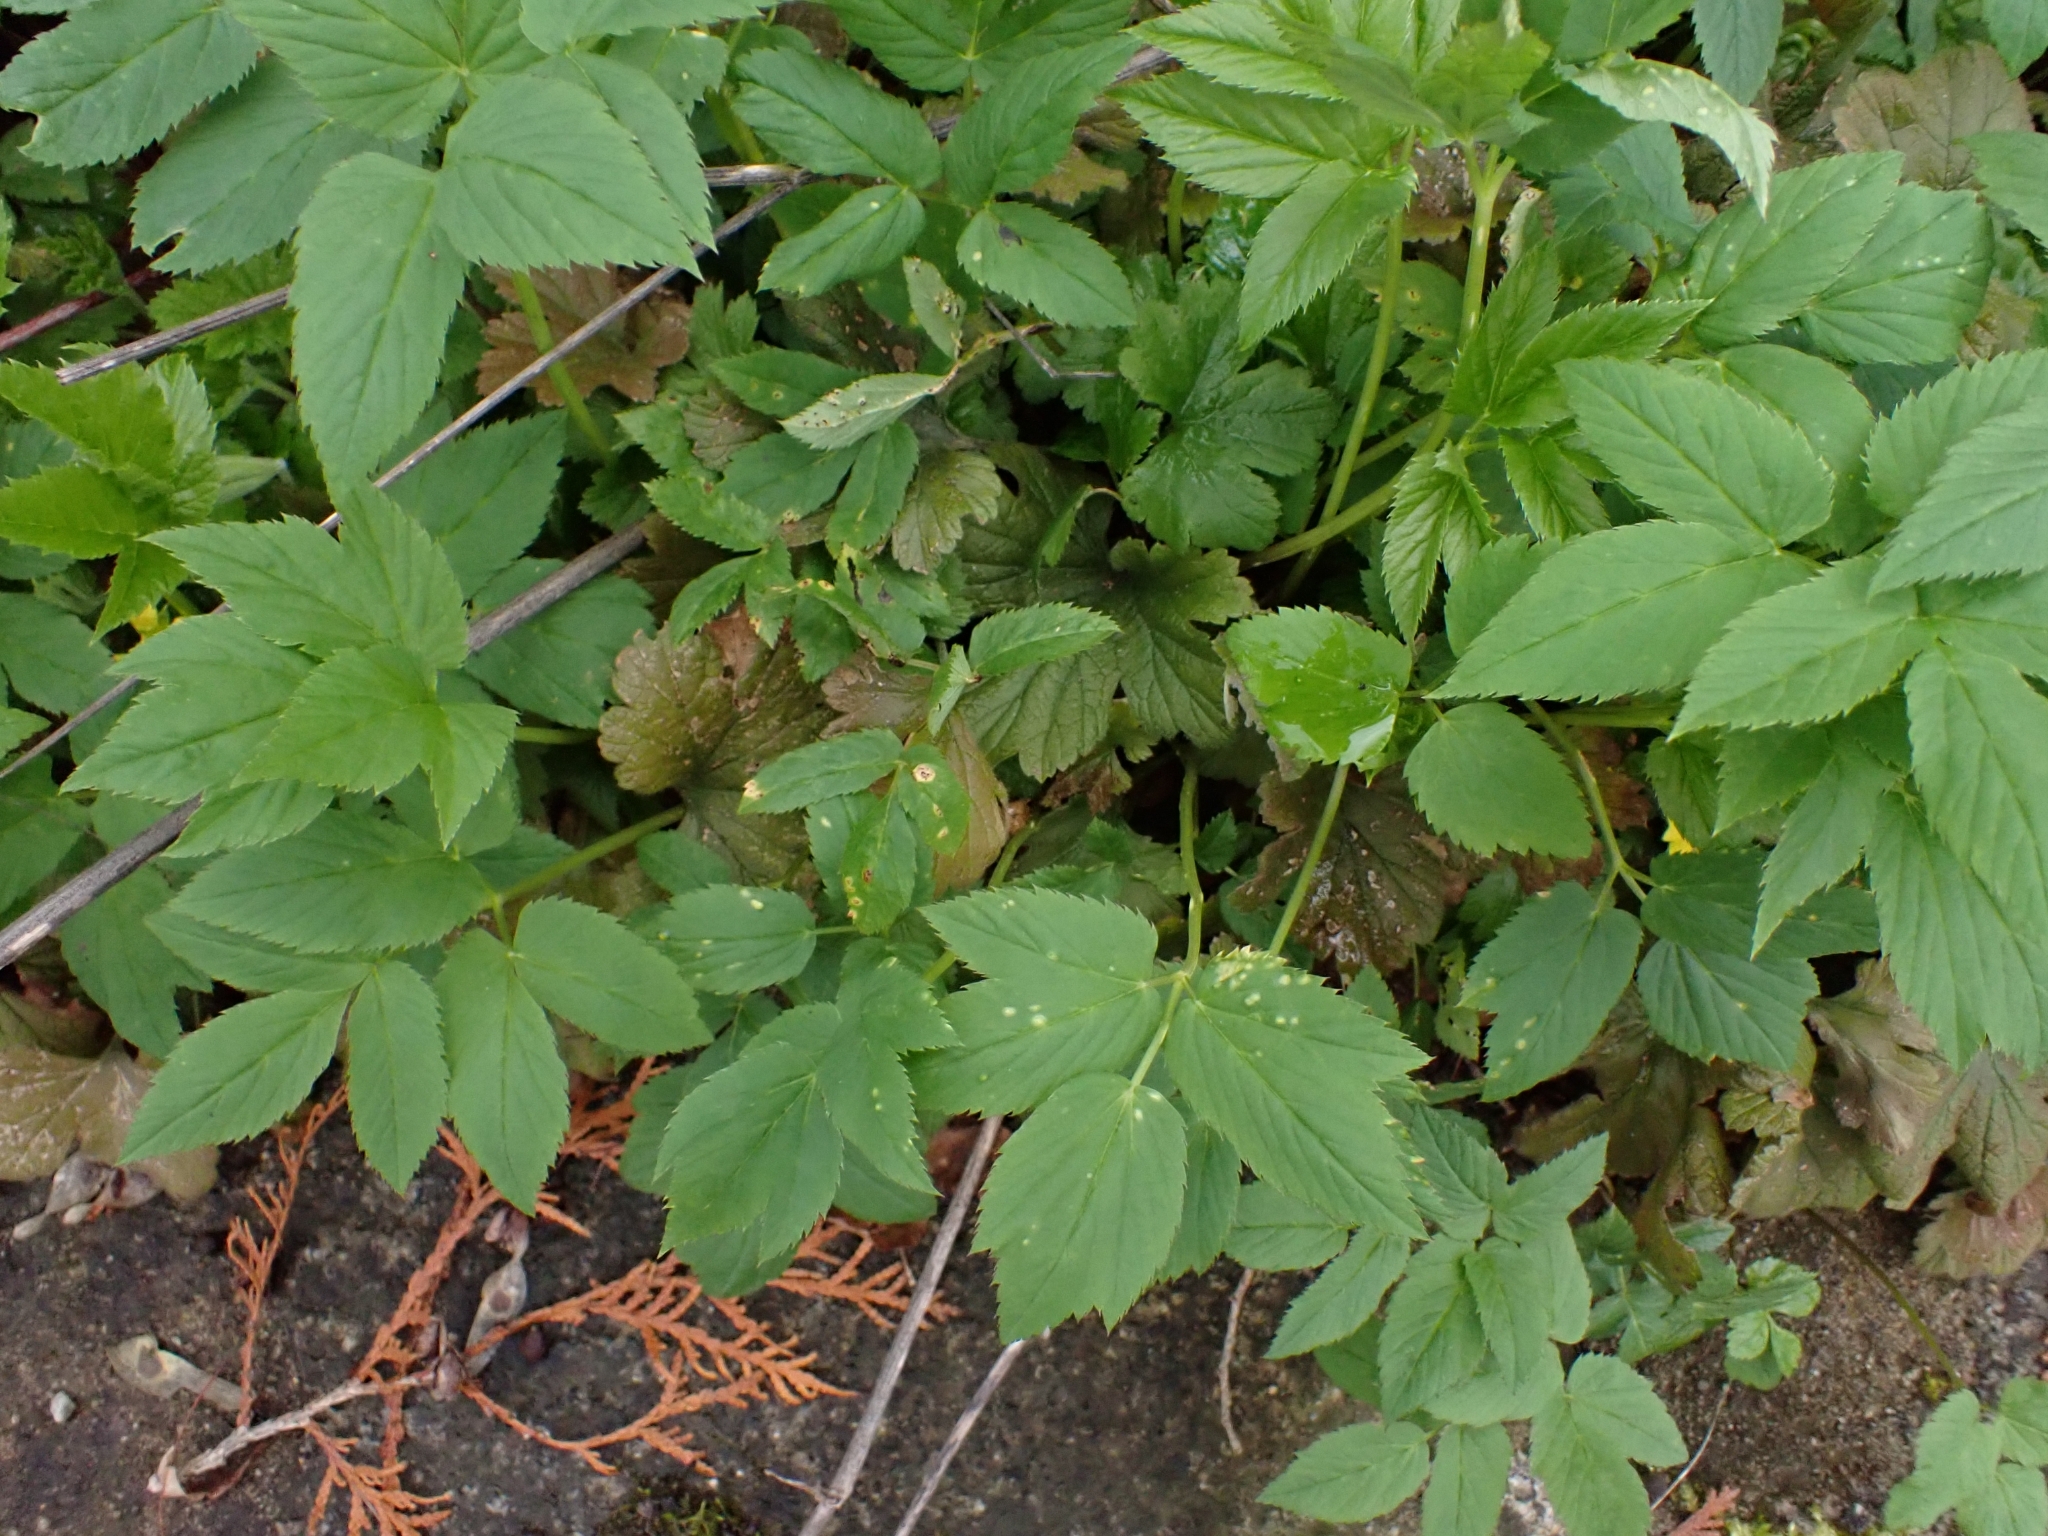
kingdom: Fungi
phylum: Basidiomycota
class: Pucciniomycetes
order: Pucciniales
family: Pucciniaceae
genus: Puccinia
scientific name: Puccinia aegopodii
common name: Ground elder rust
